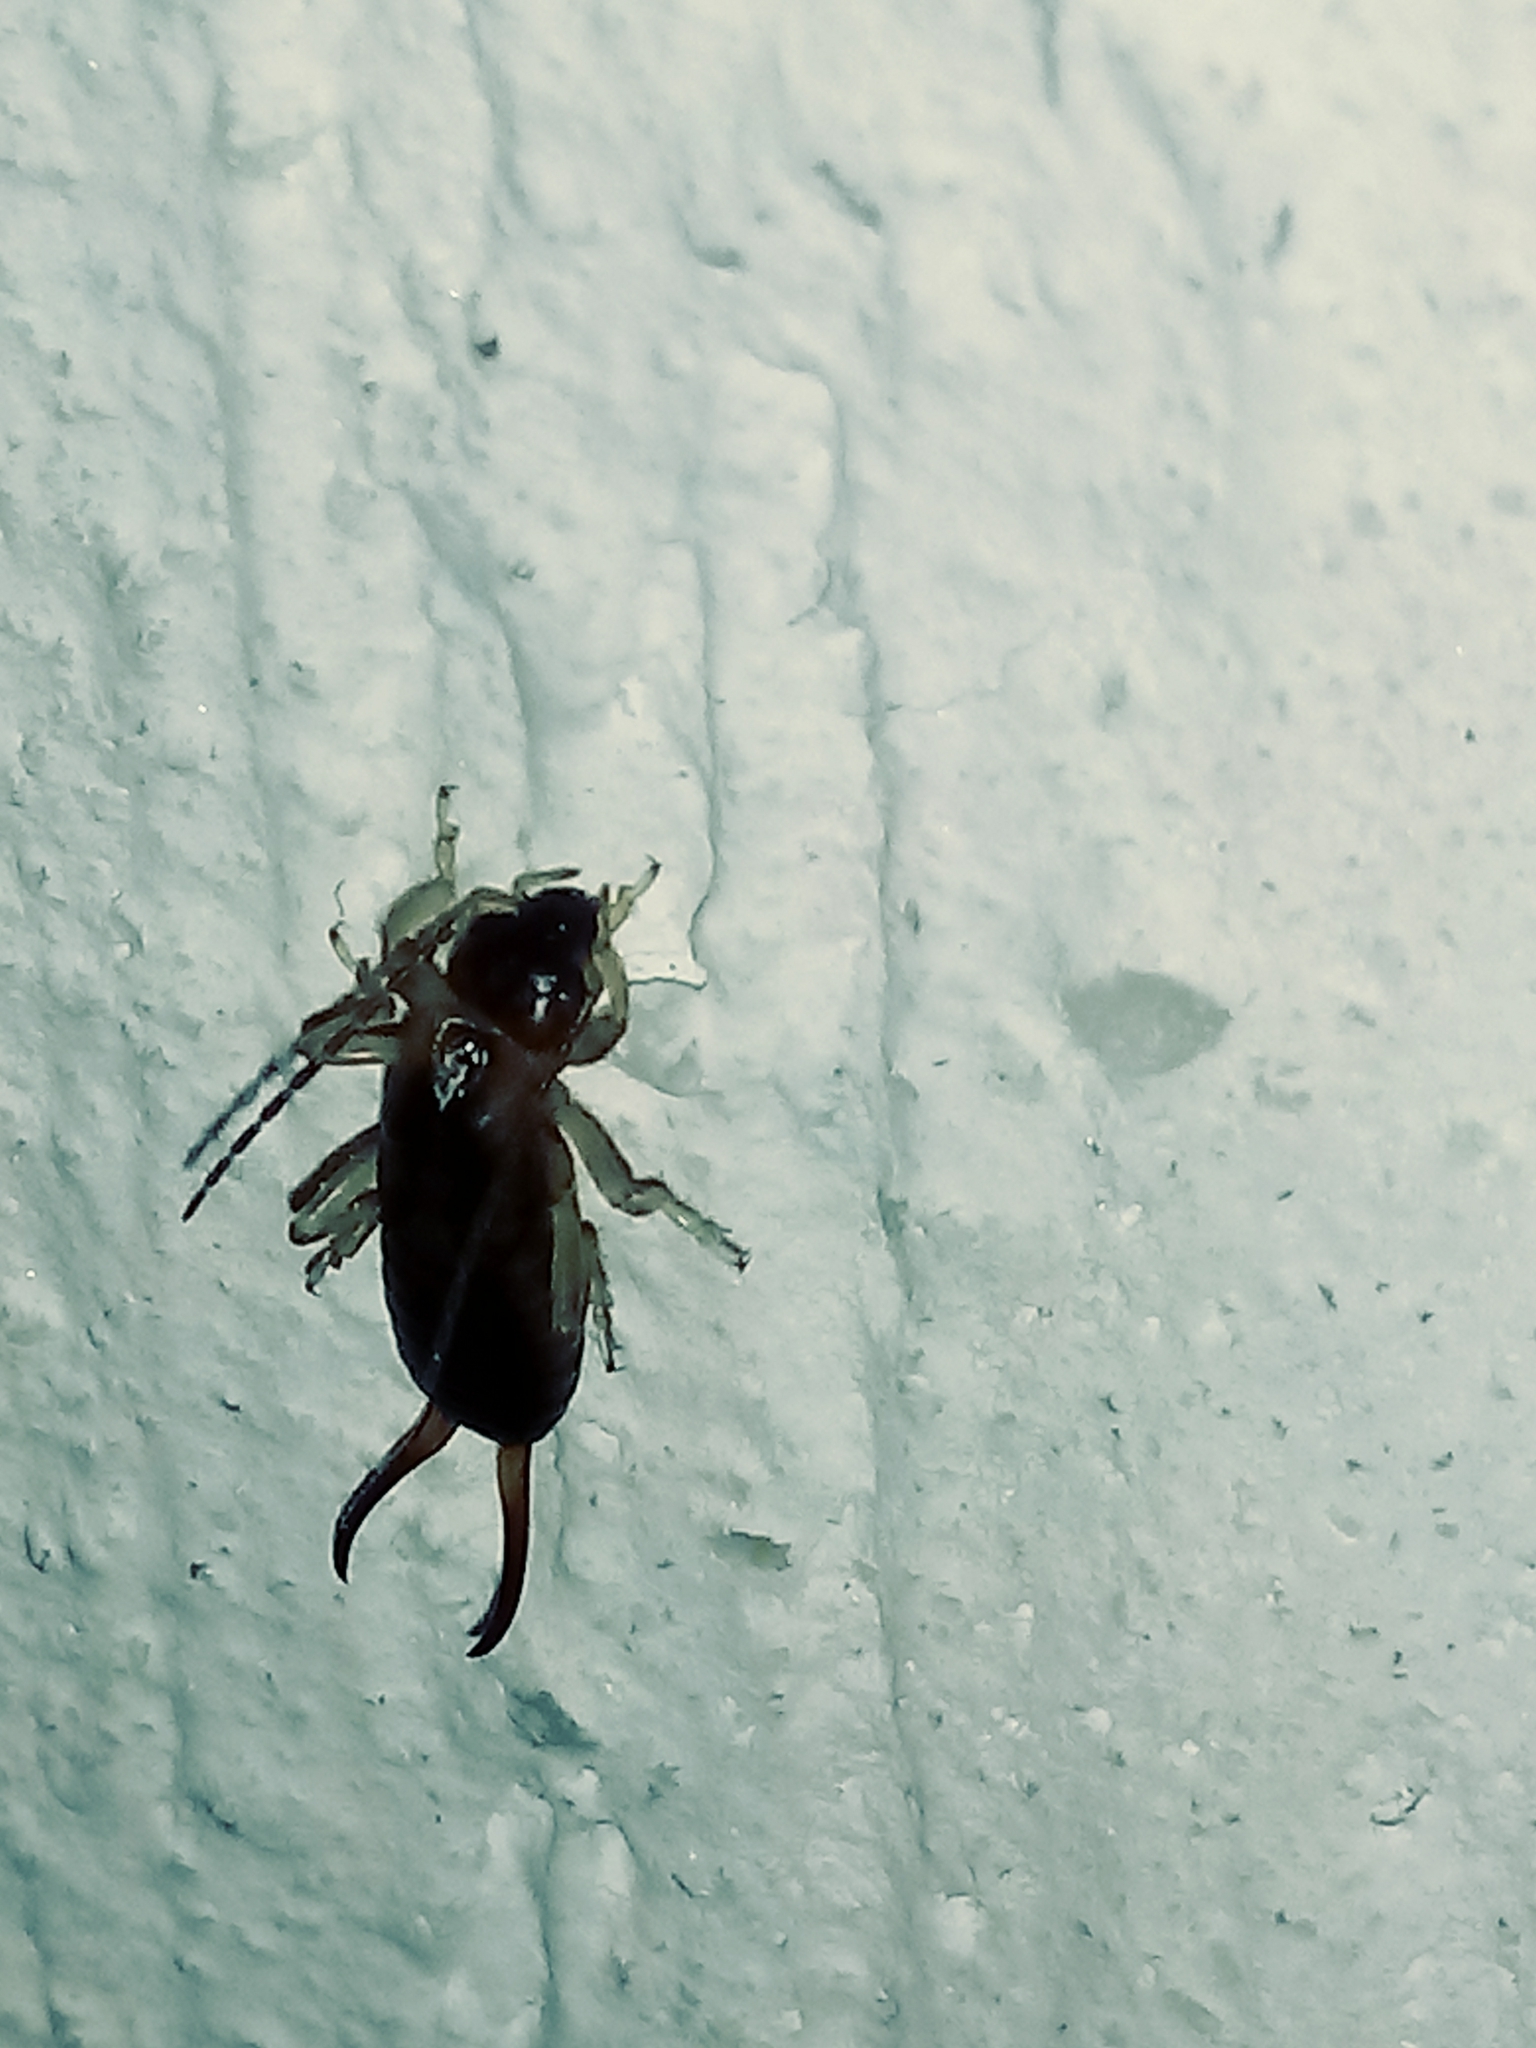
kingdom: Animalia
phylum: Arthropoda
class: Insecta
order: Dermaptera
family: Forficulidae
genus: Forficula
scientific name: Forficula
